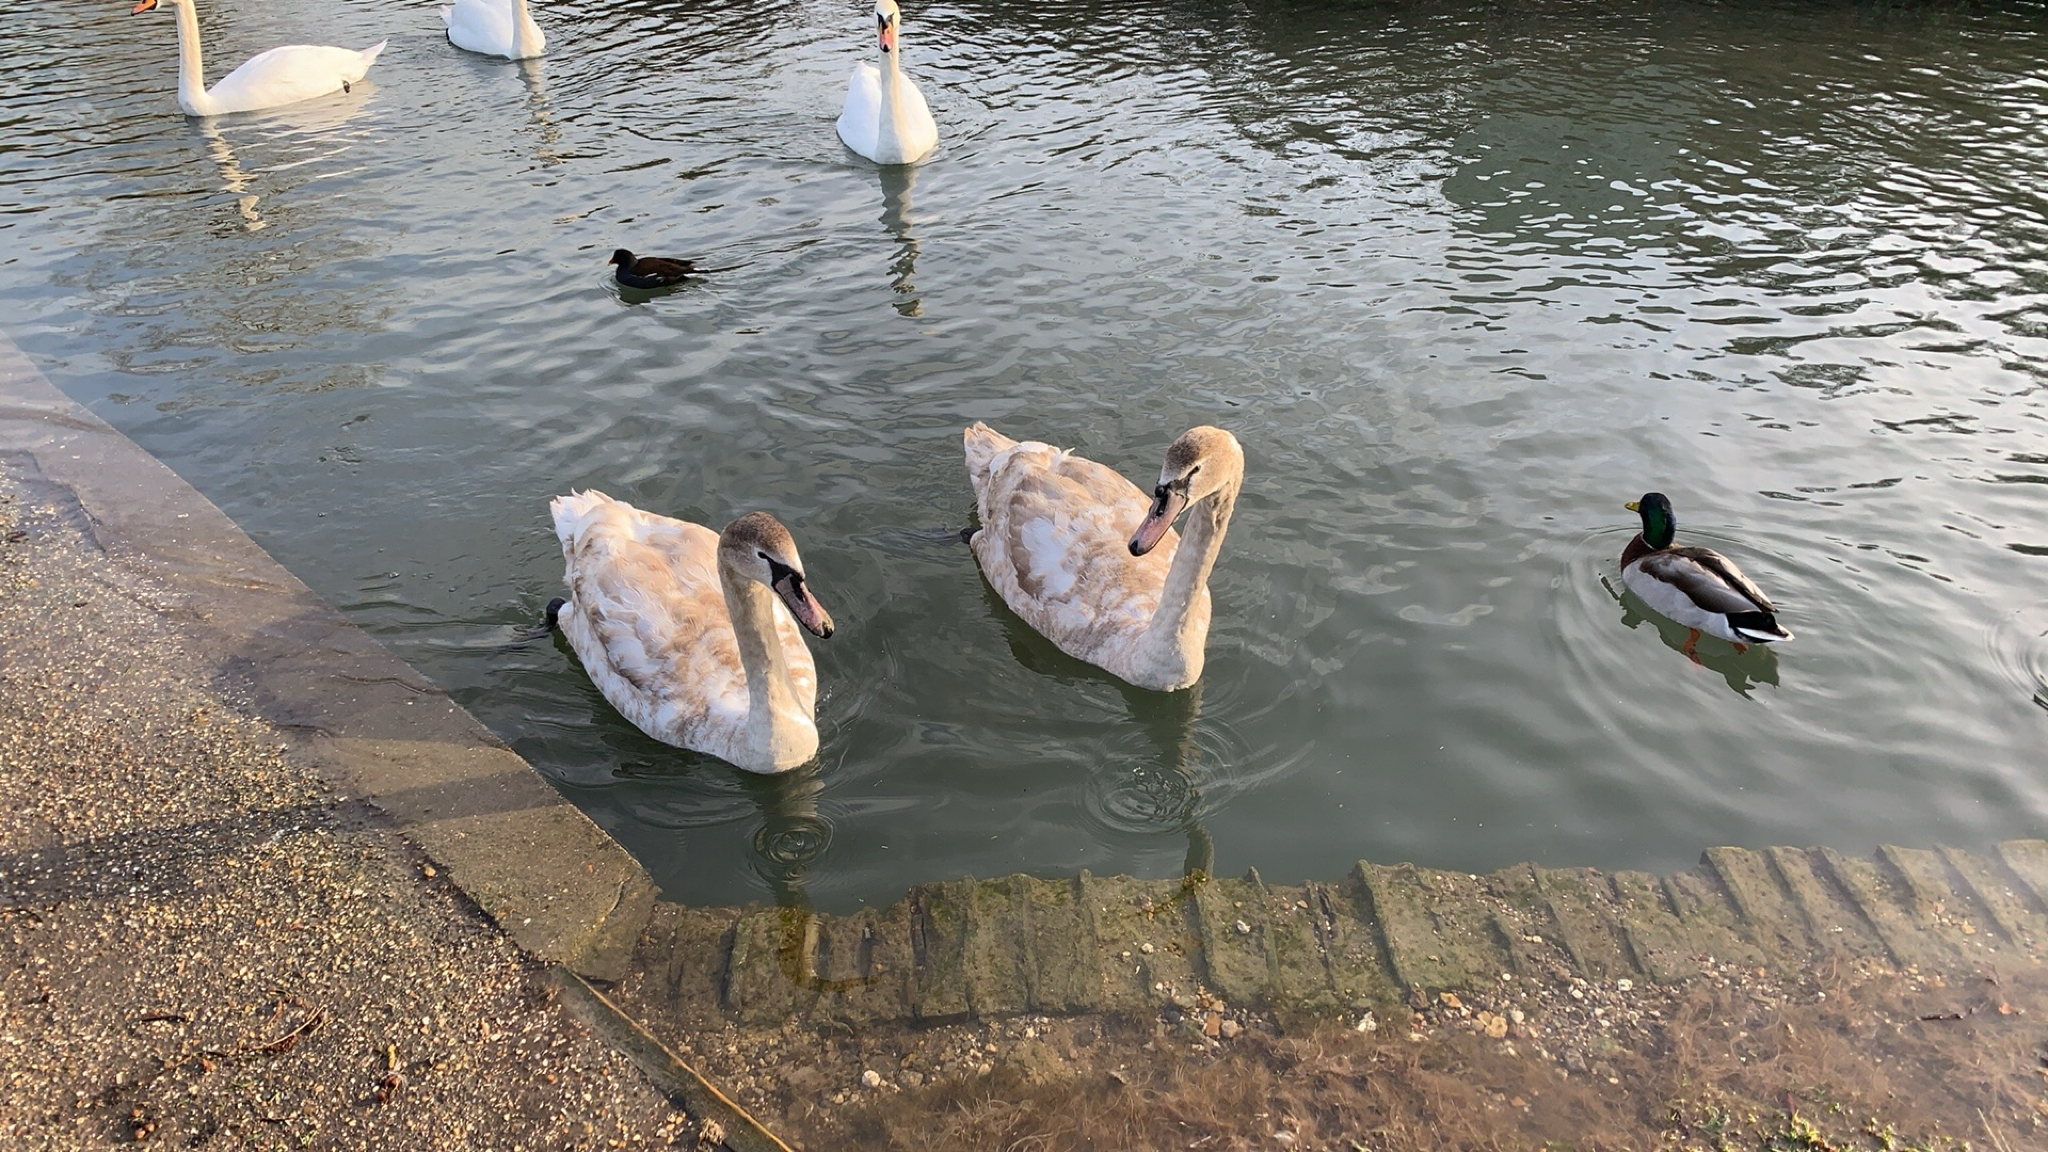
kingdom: Animalia
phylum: Chordata
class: Aves
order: Anseriformes
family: Anatidae
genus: Cygnus
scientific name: Cygnus olor
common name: Mute swan
